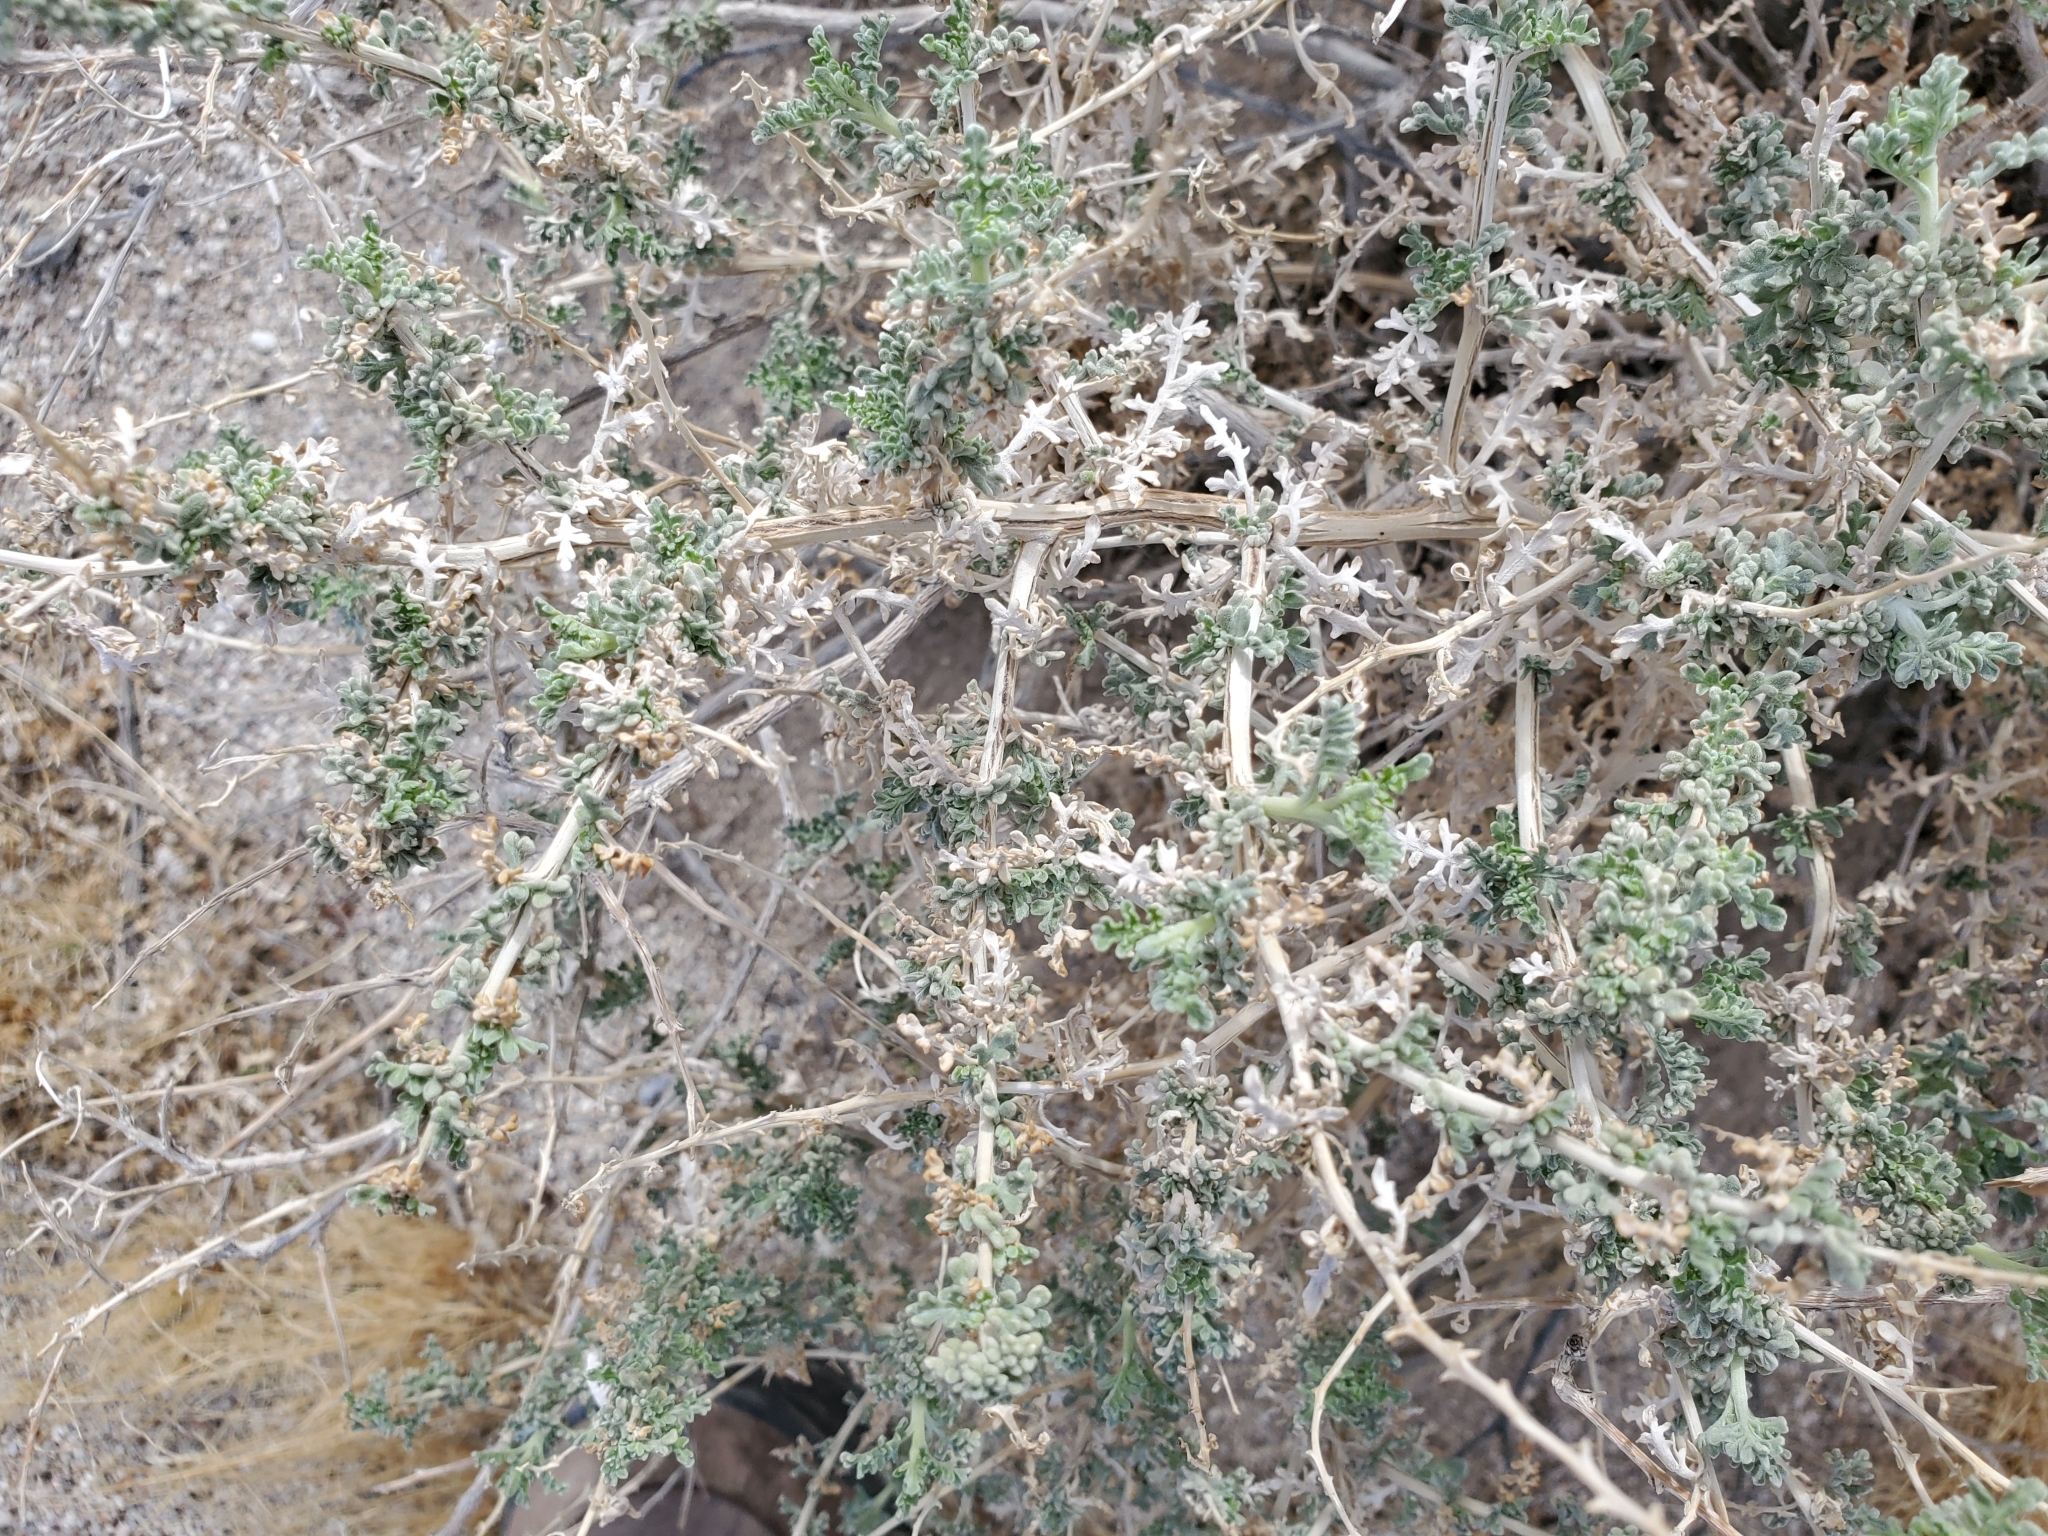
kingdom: Plantae
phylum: Tracheophyta
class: Magnoliopsida
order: Asterales
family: Asteraceae
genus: Ambrosia
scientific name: Ambrosia dumosa
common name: Bur-sage
